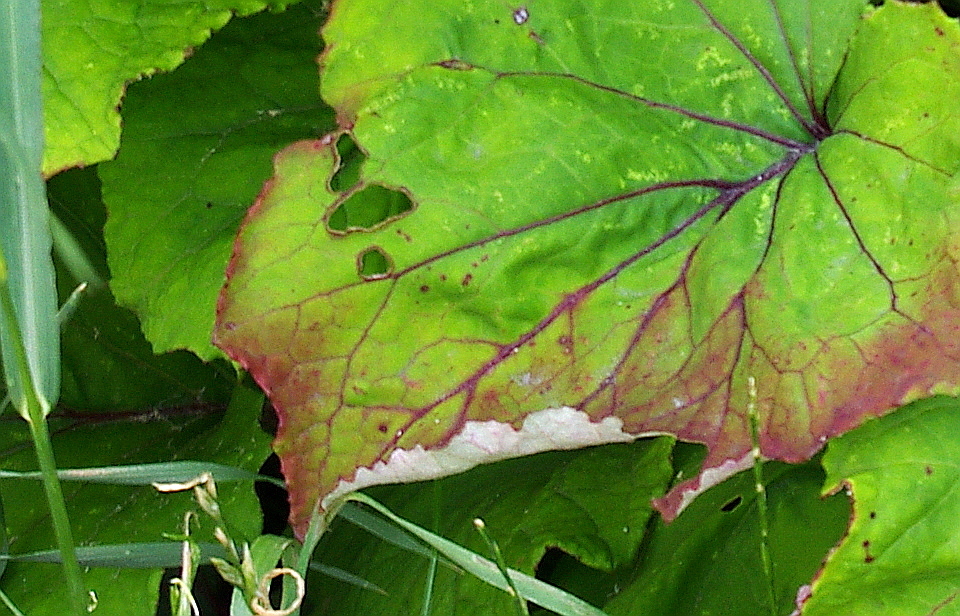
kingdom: Plantae
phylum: Tracheophyta
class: Magnoliopsida
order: Asterales
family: Asteraceae
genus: Tussilago
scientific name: Tussilago farfara
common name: Coltsfoot
